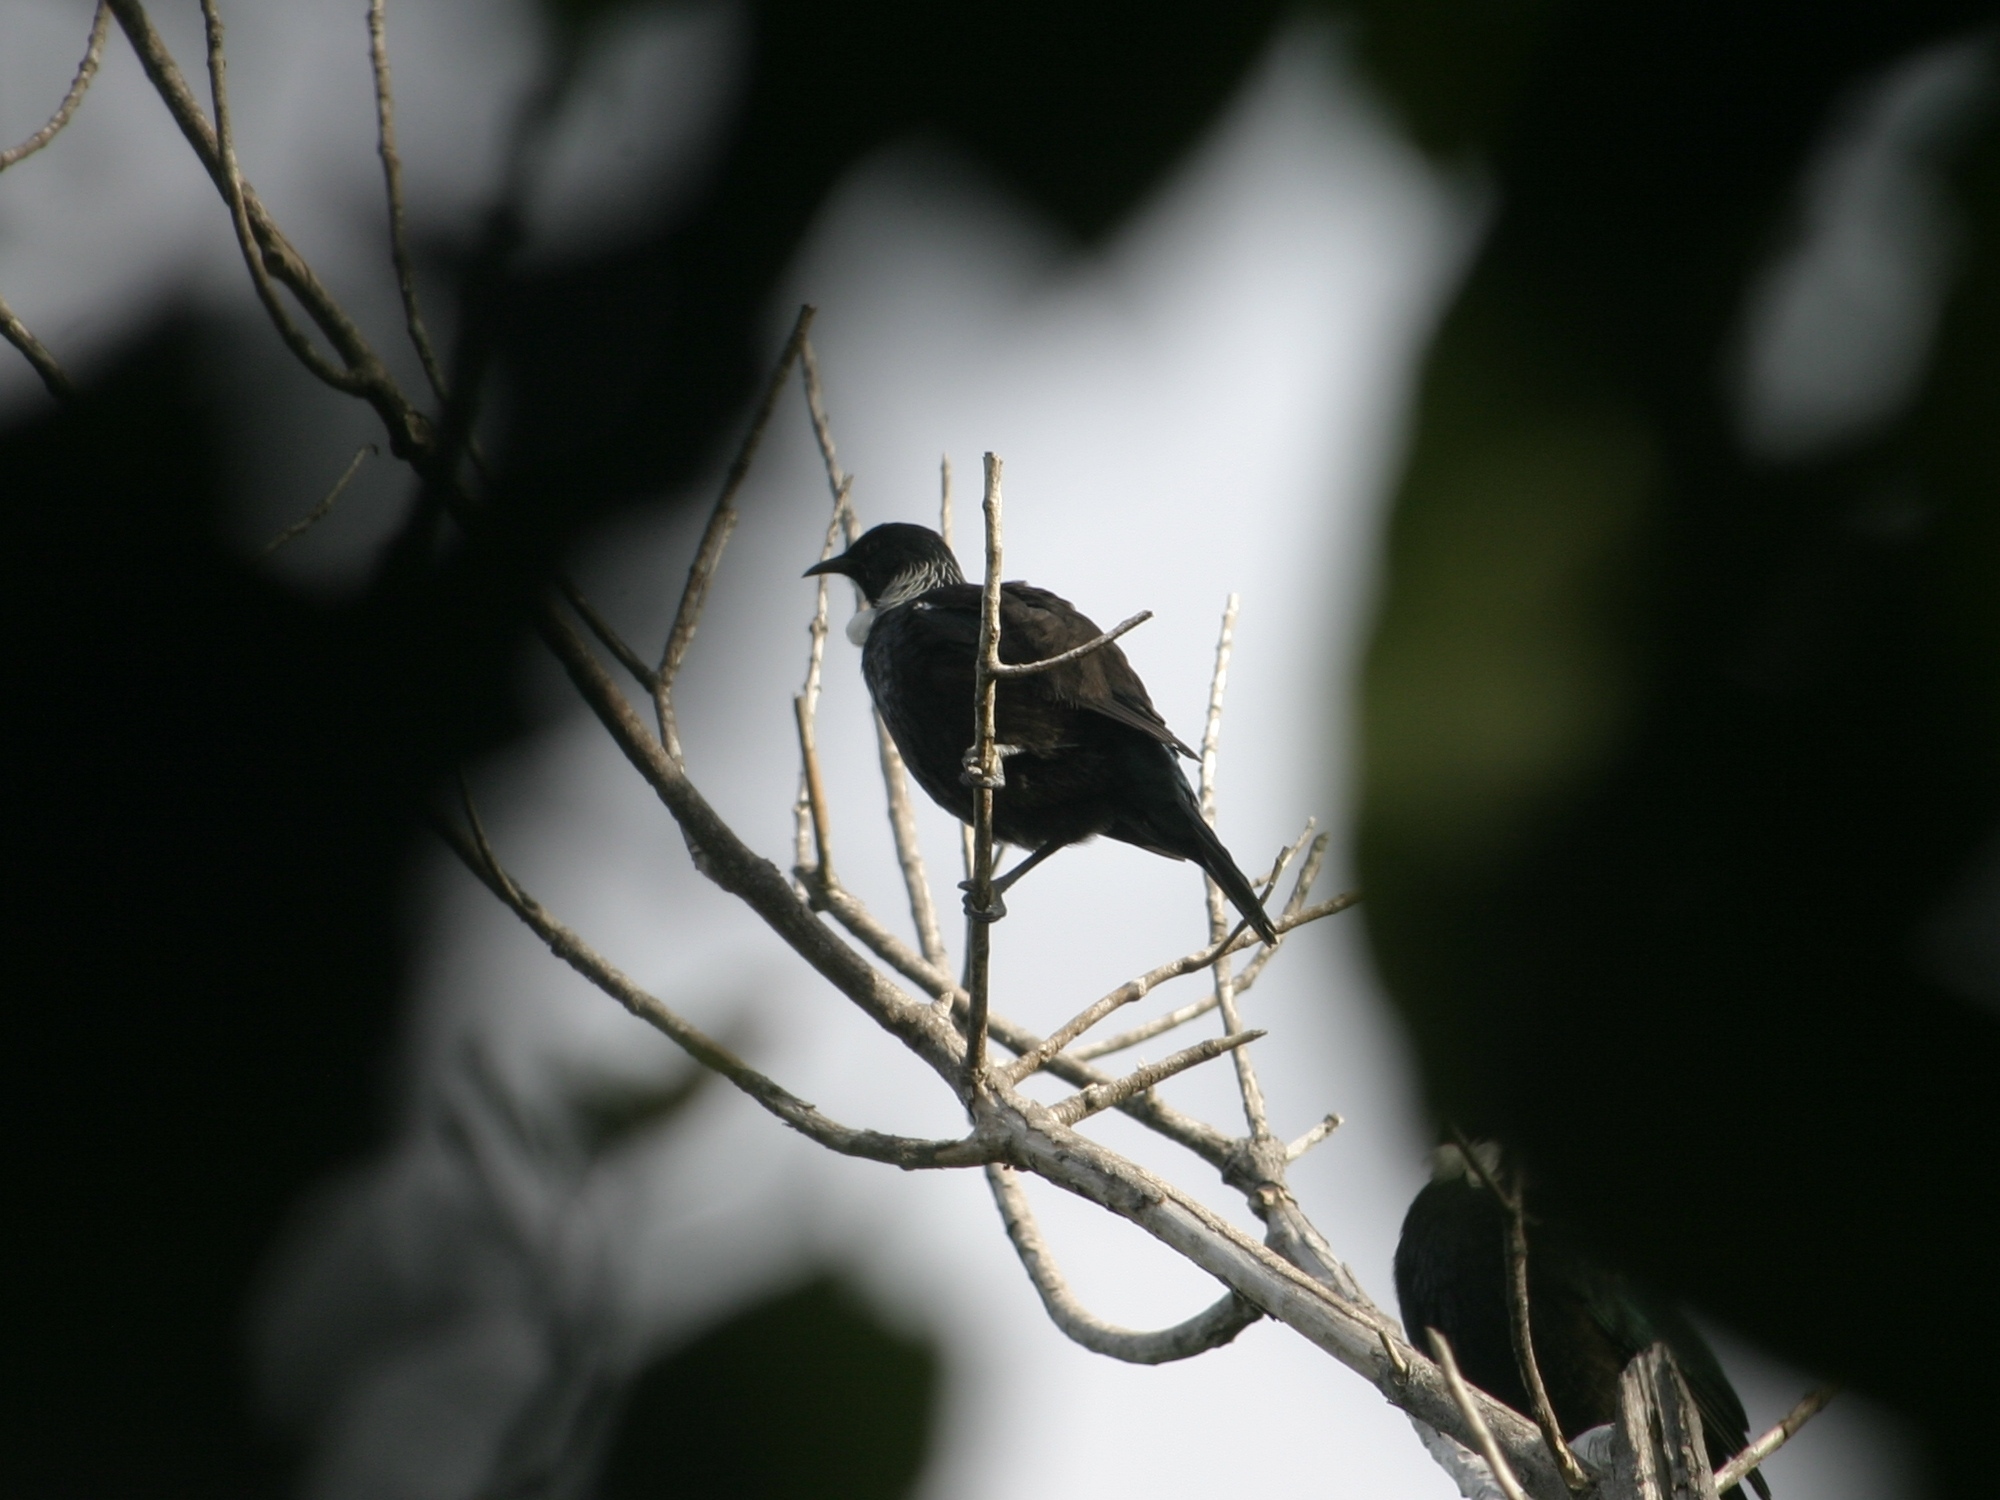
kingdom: Animalia
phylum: Chordata
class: Aves
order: Passeriformes
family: Meliphagidae
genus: Prosthemadera
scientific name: Prosthemadera novaeseelandiae
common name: Tui
